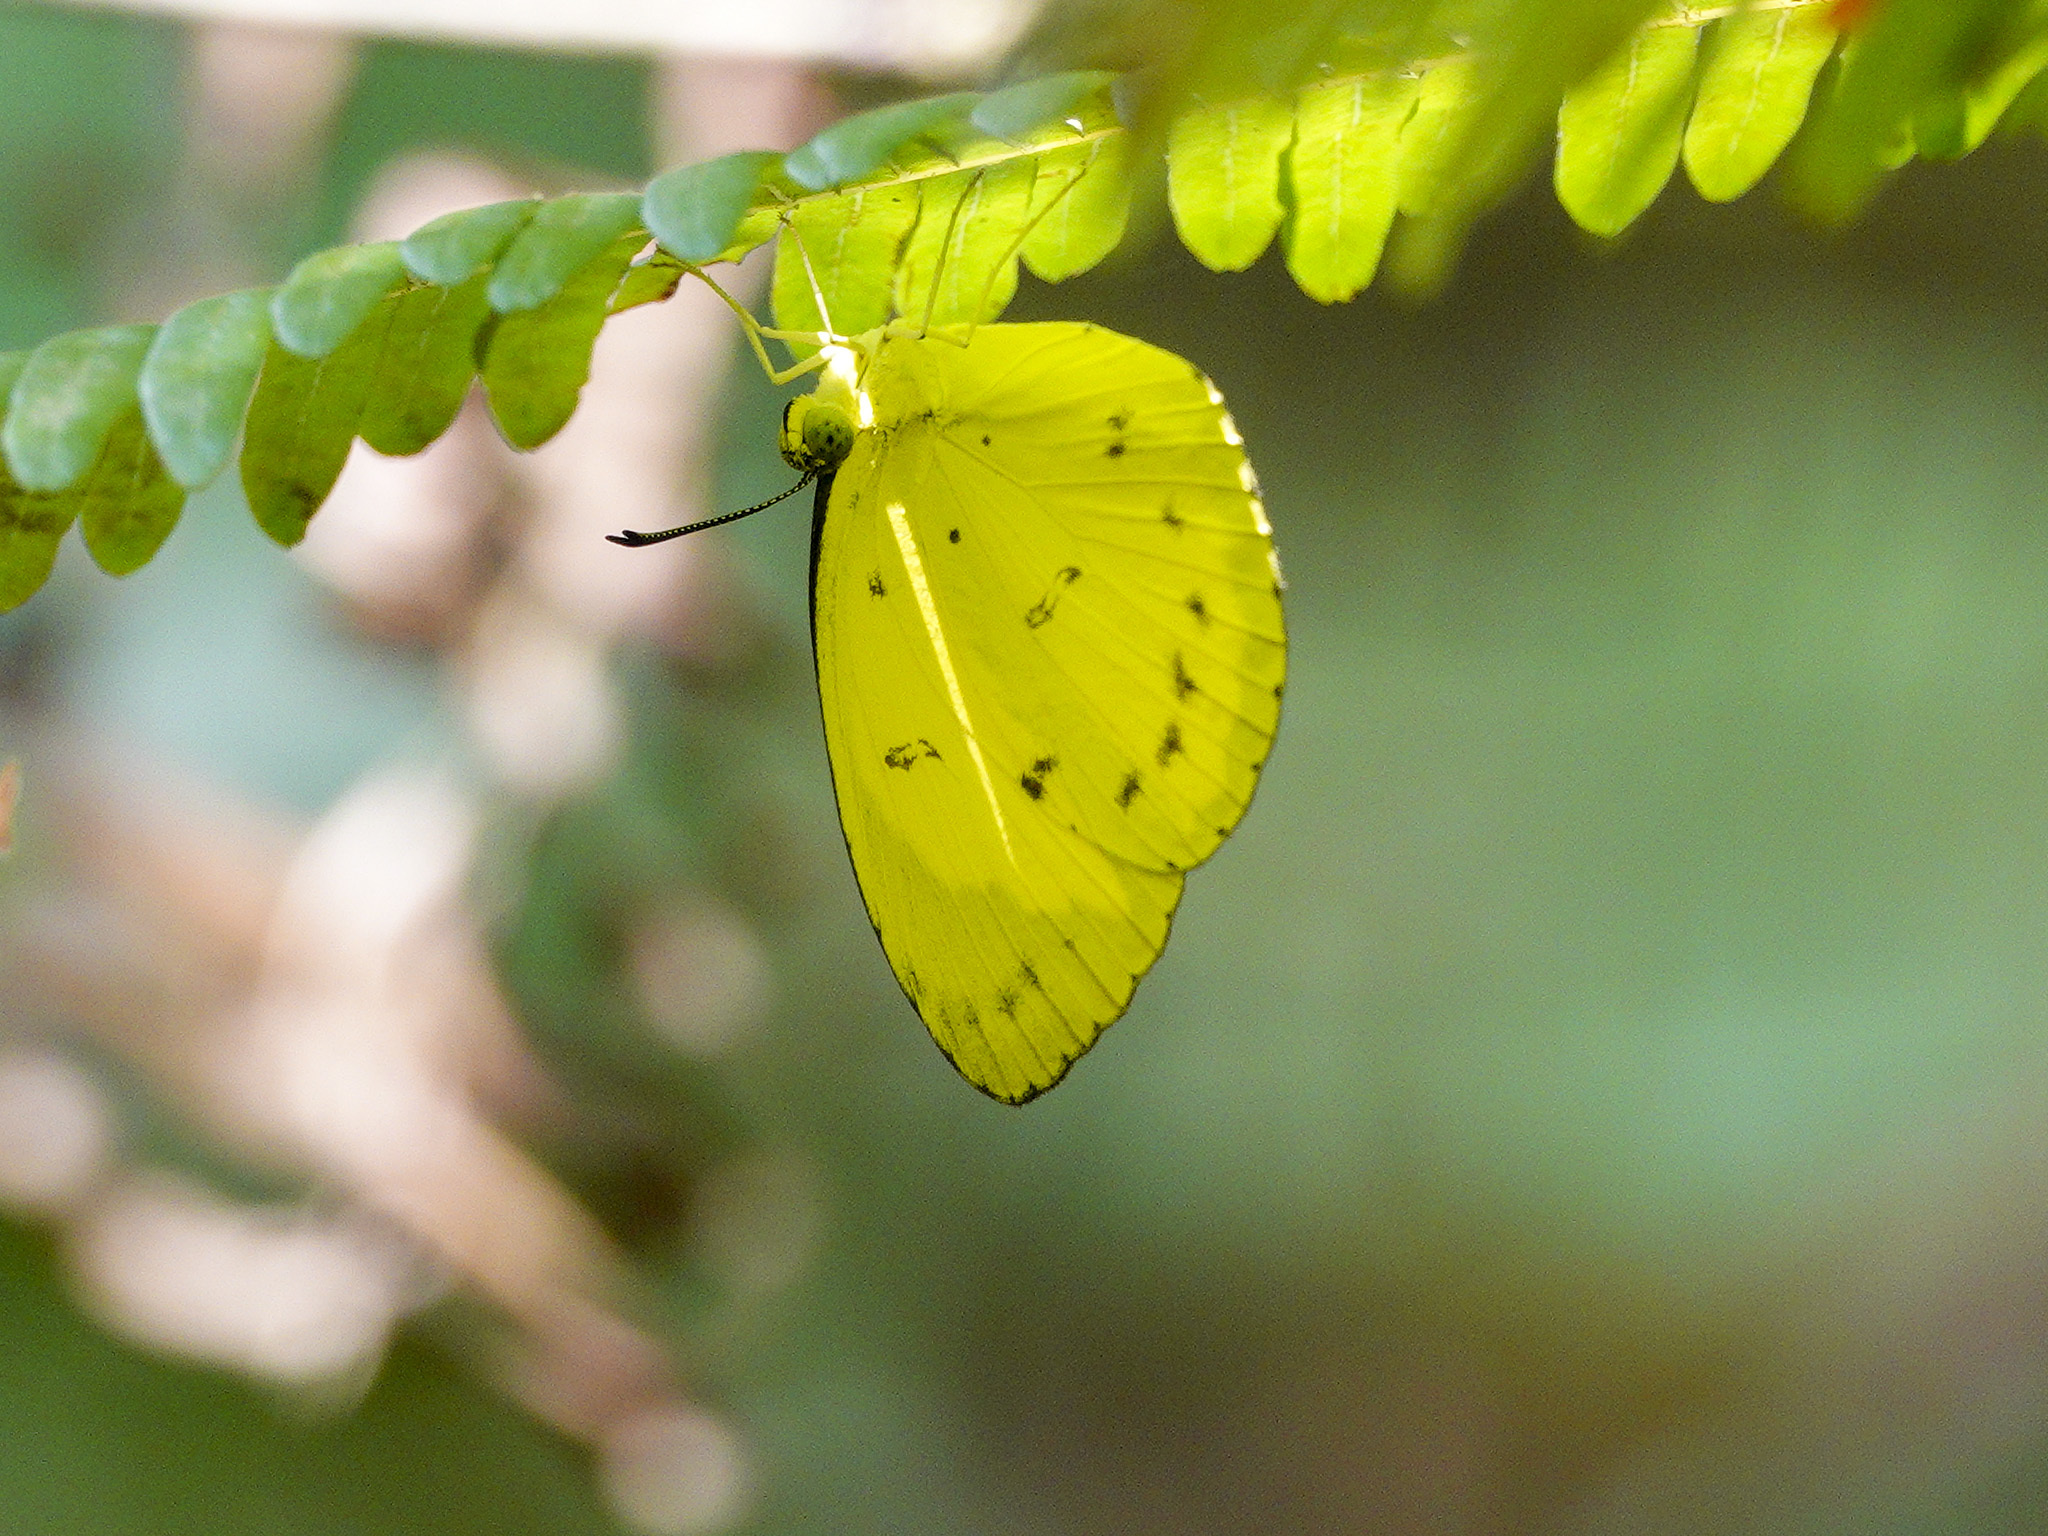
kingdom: Animalia
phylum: Arthropoda
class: Insecta
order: Lepidoptera
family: Pieridae
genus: Eurema
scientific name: Eurema nicevillei
